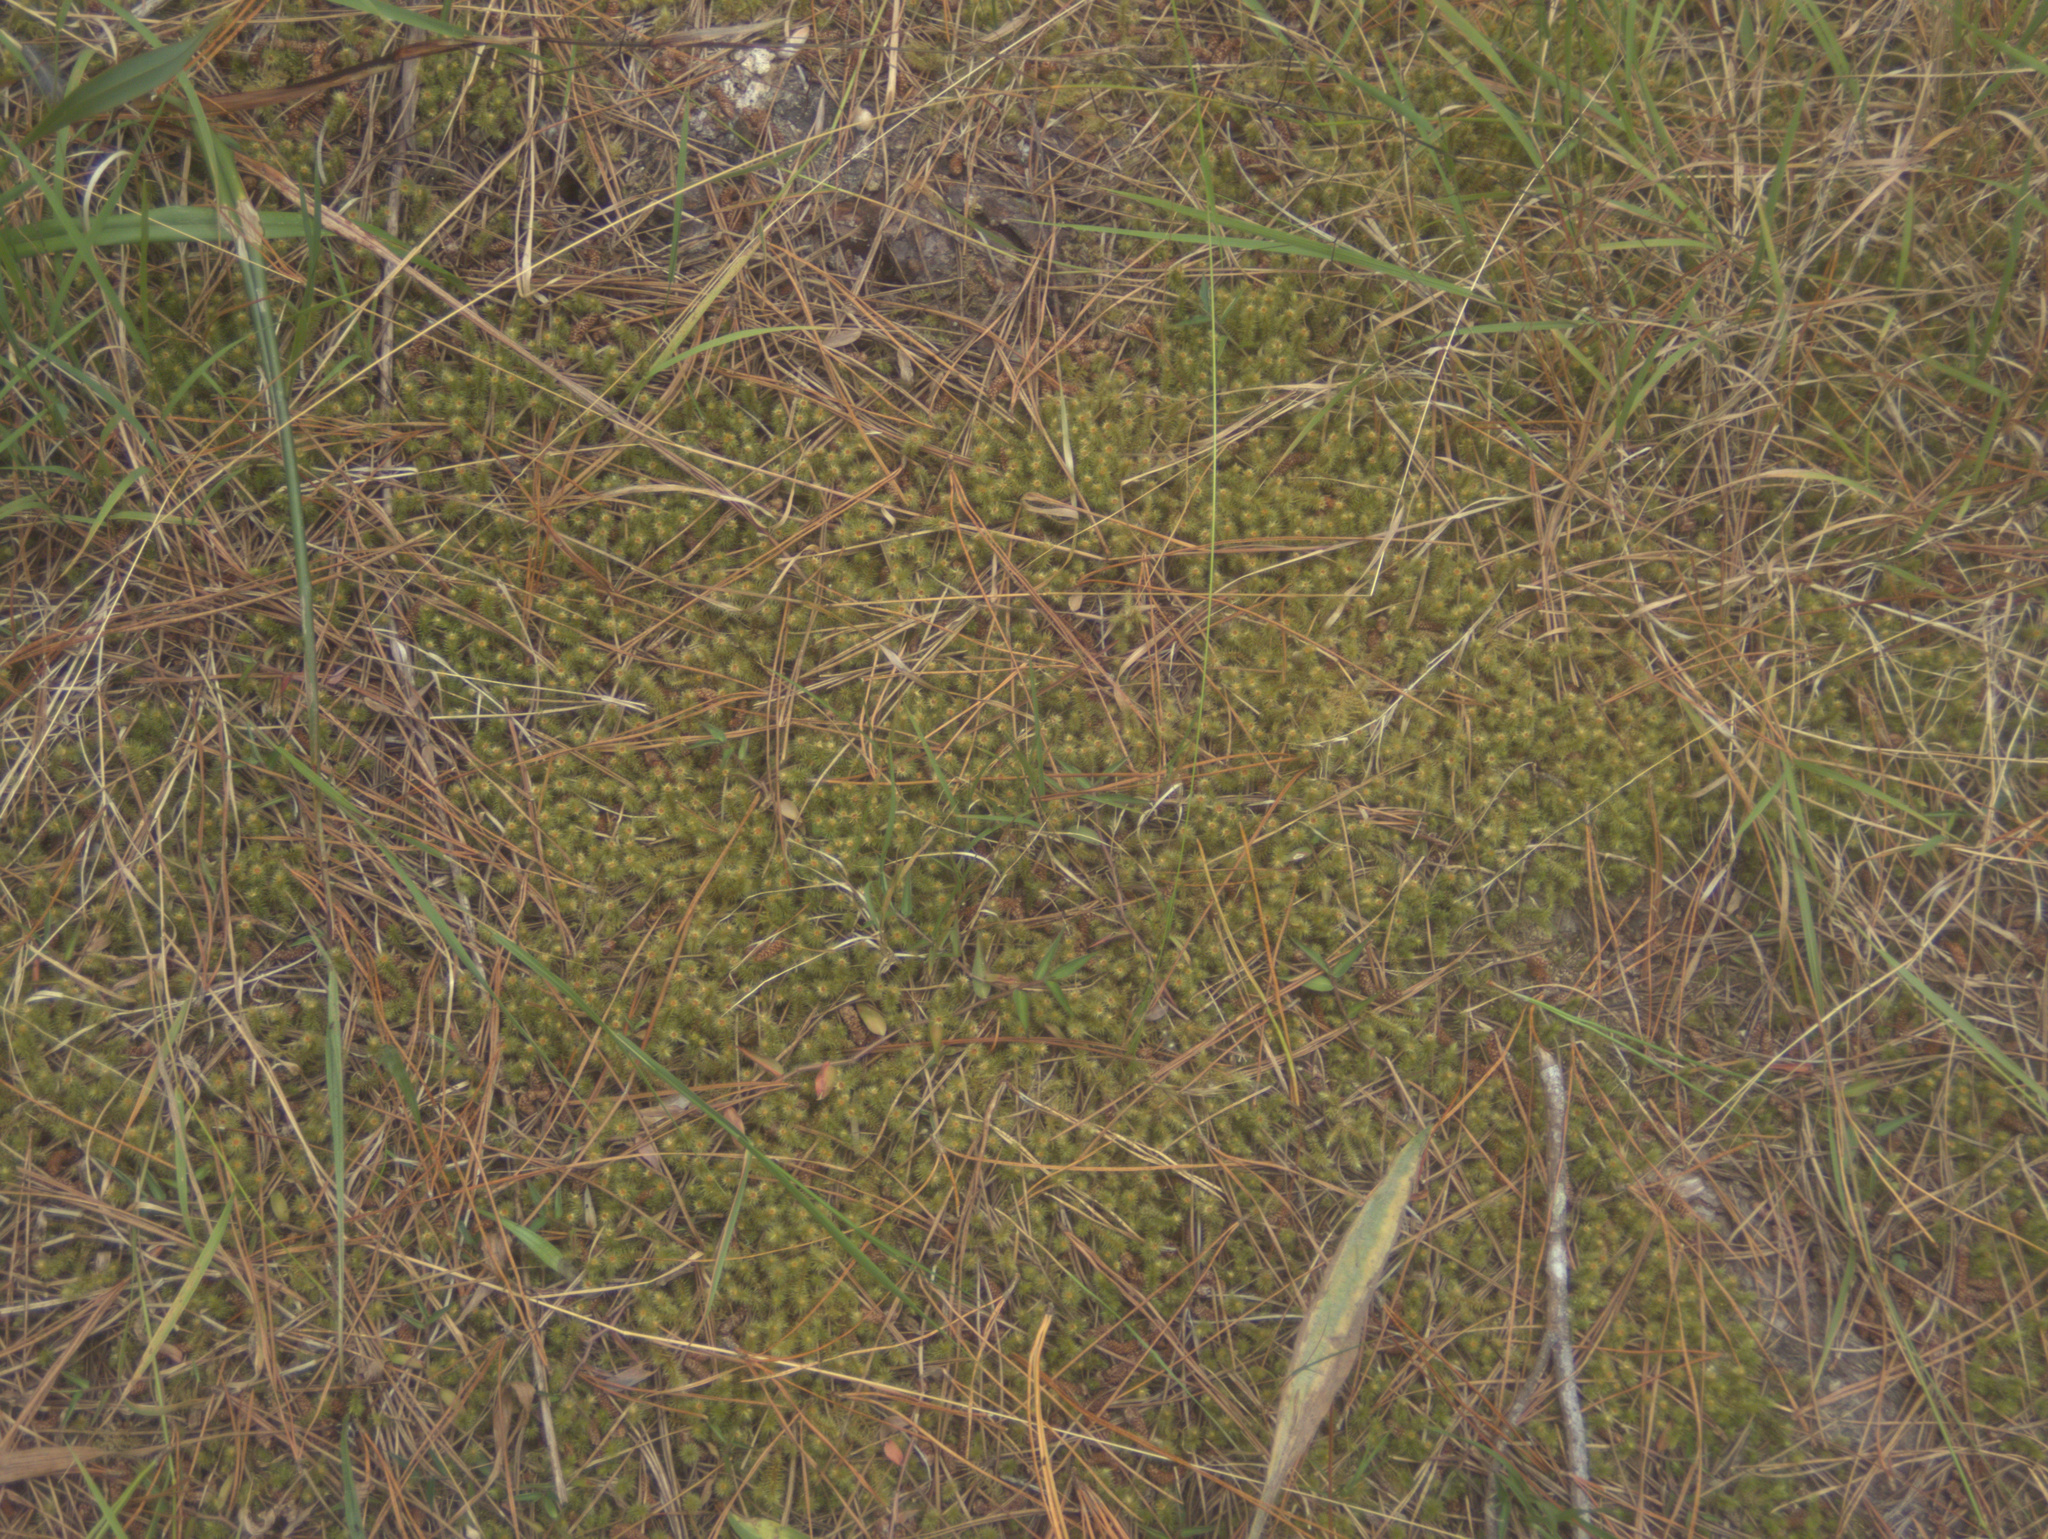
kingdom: Plantae
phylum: Bryophyta
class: Bryopsida
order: Bartramiales
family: Bartramiaceae
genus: Breutelia
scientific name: Breutelia pendula
